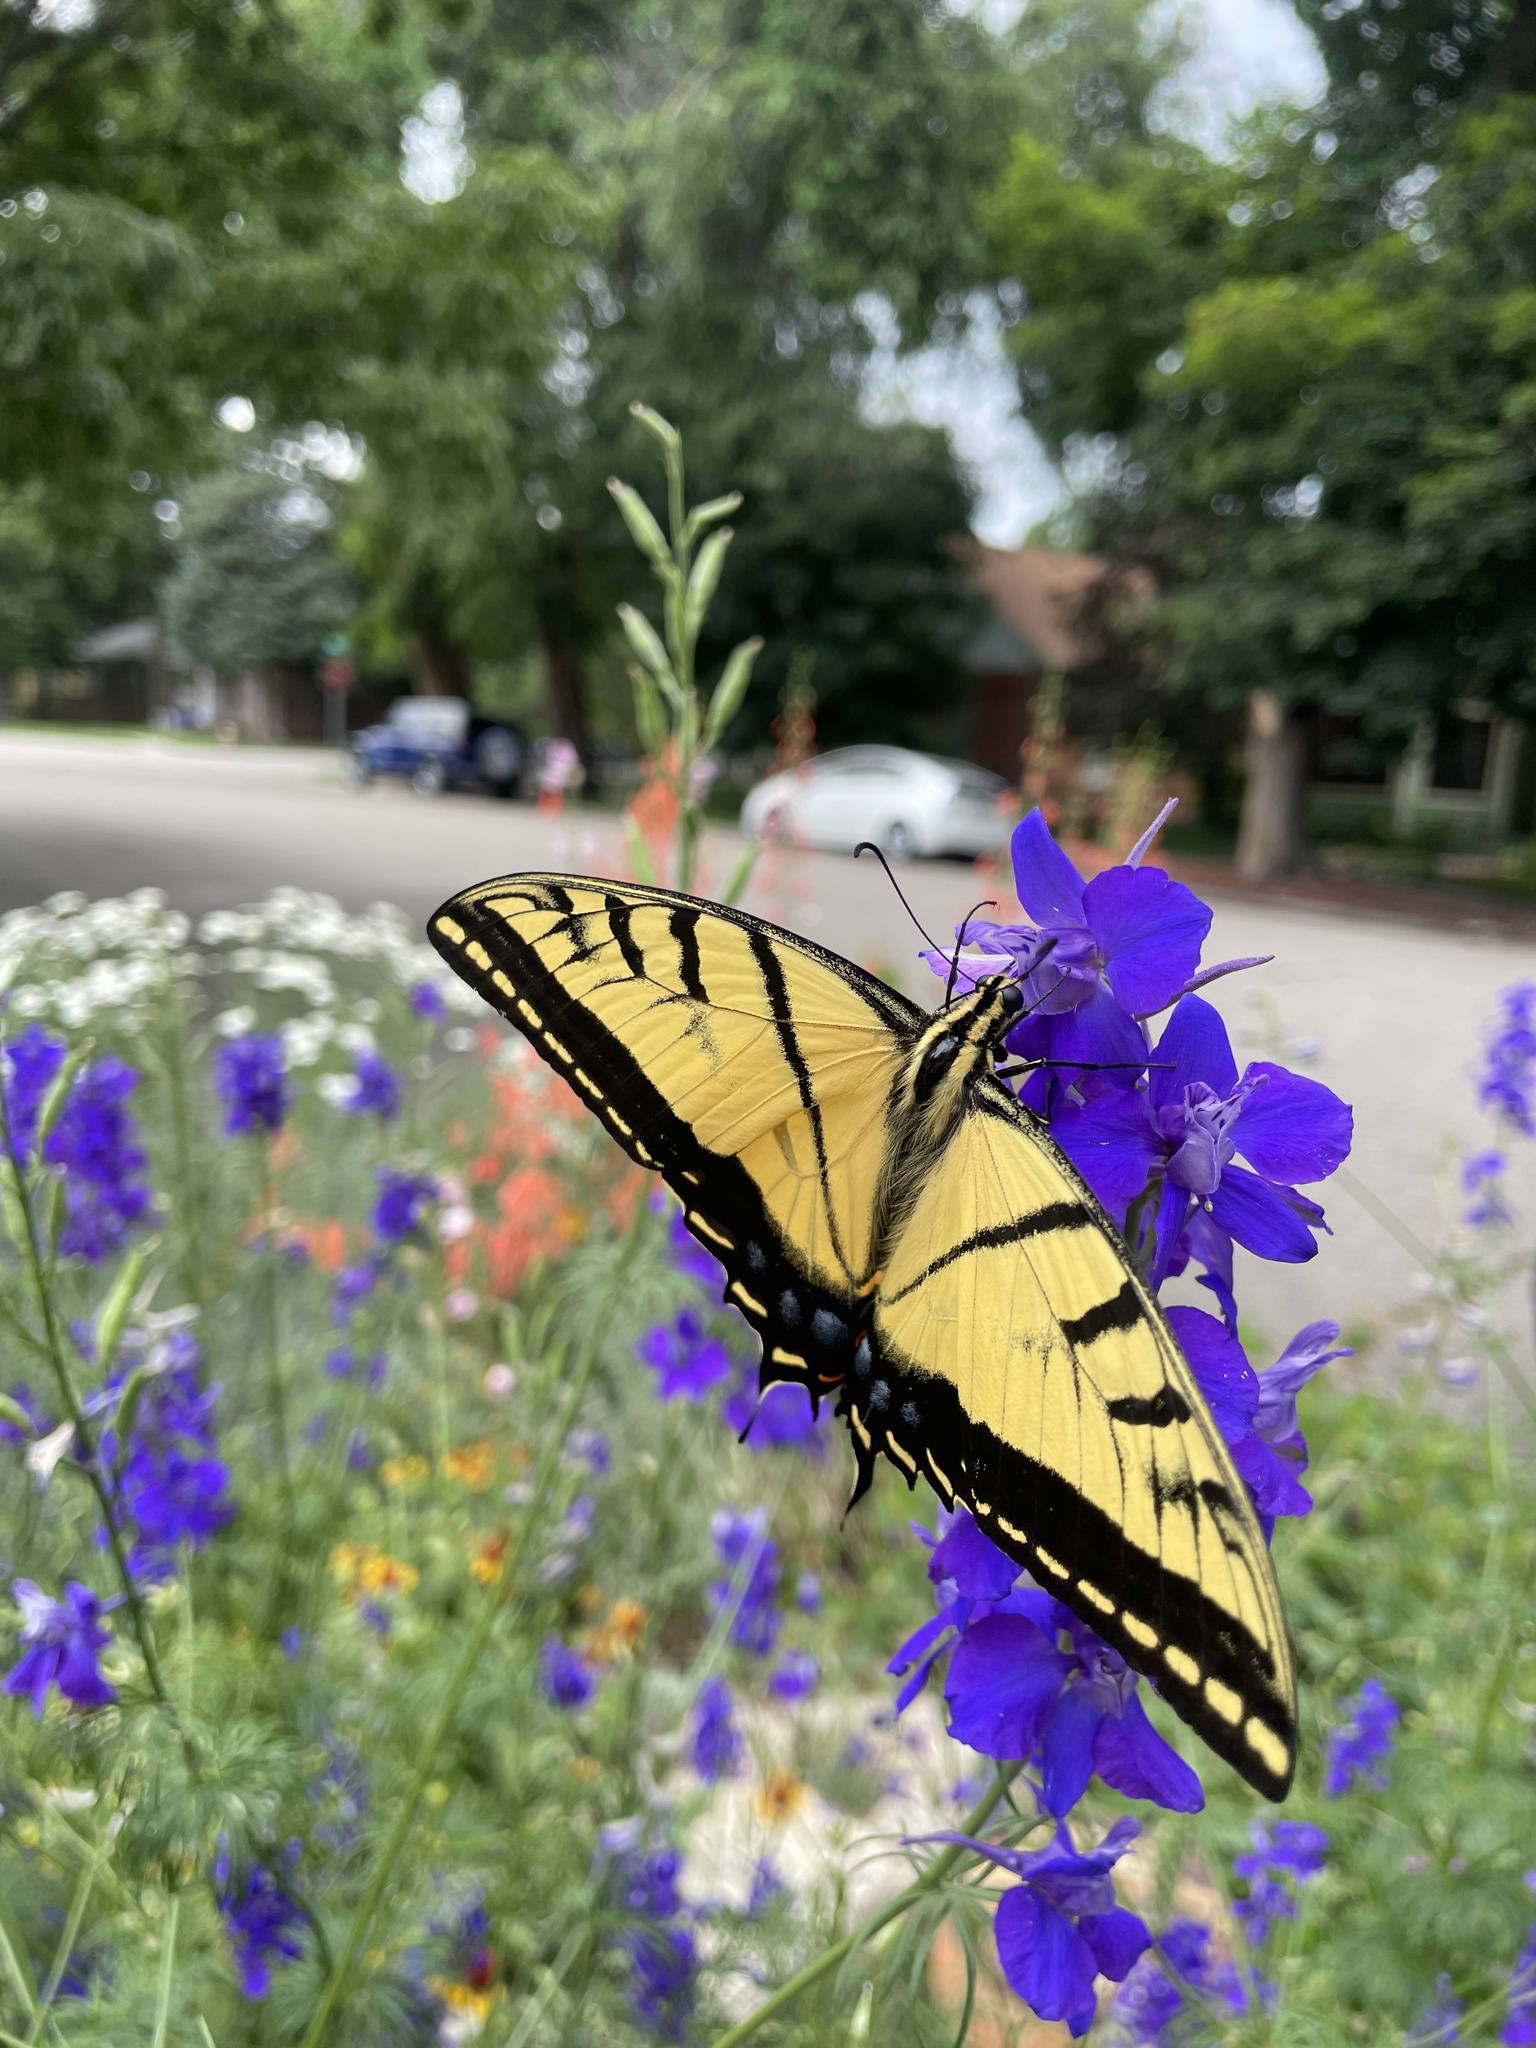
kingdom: Animalia
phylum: Arthropoda
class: Insecta
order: Lepidoptera
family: Papilionidae
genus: Papilio
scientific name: Papilio multicaudata
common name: Two-tailed tiger swallowtail
